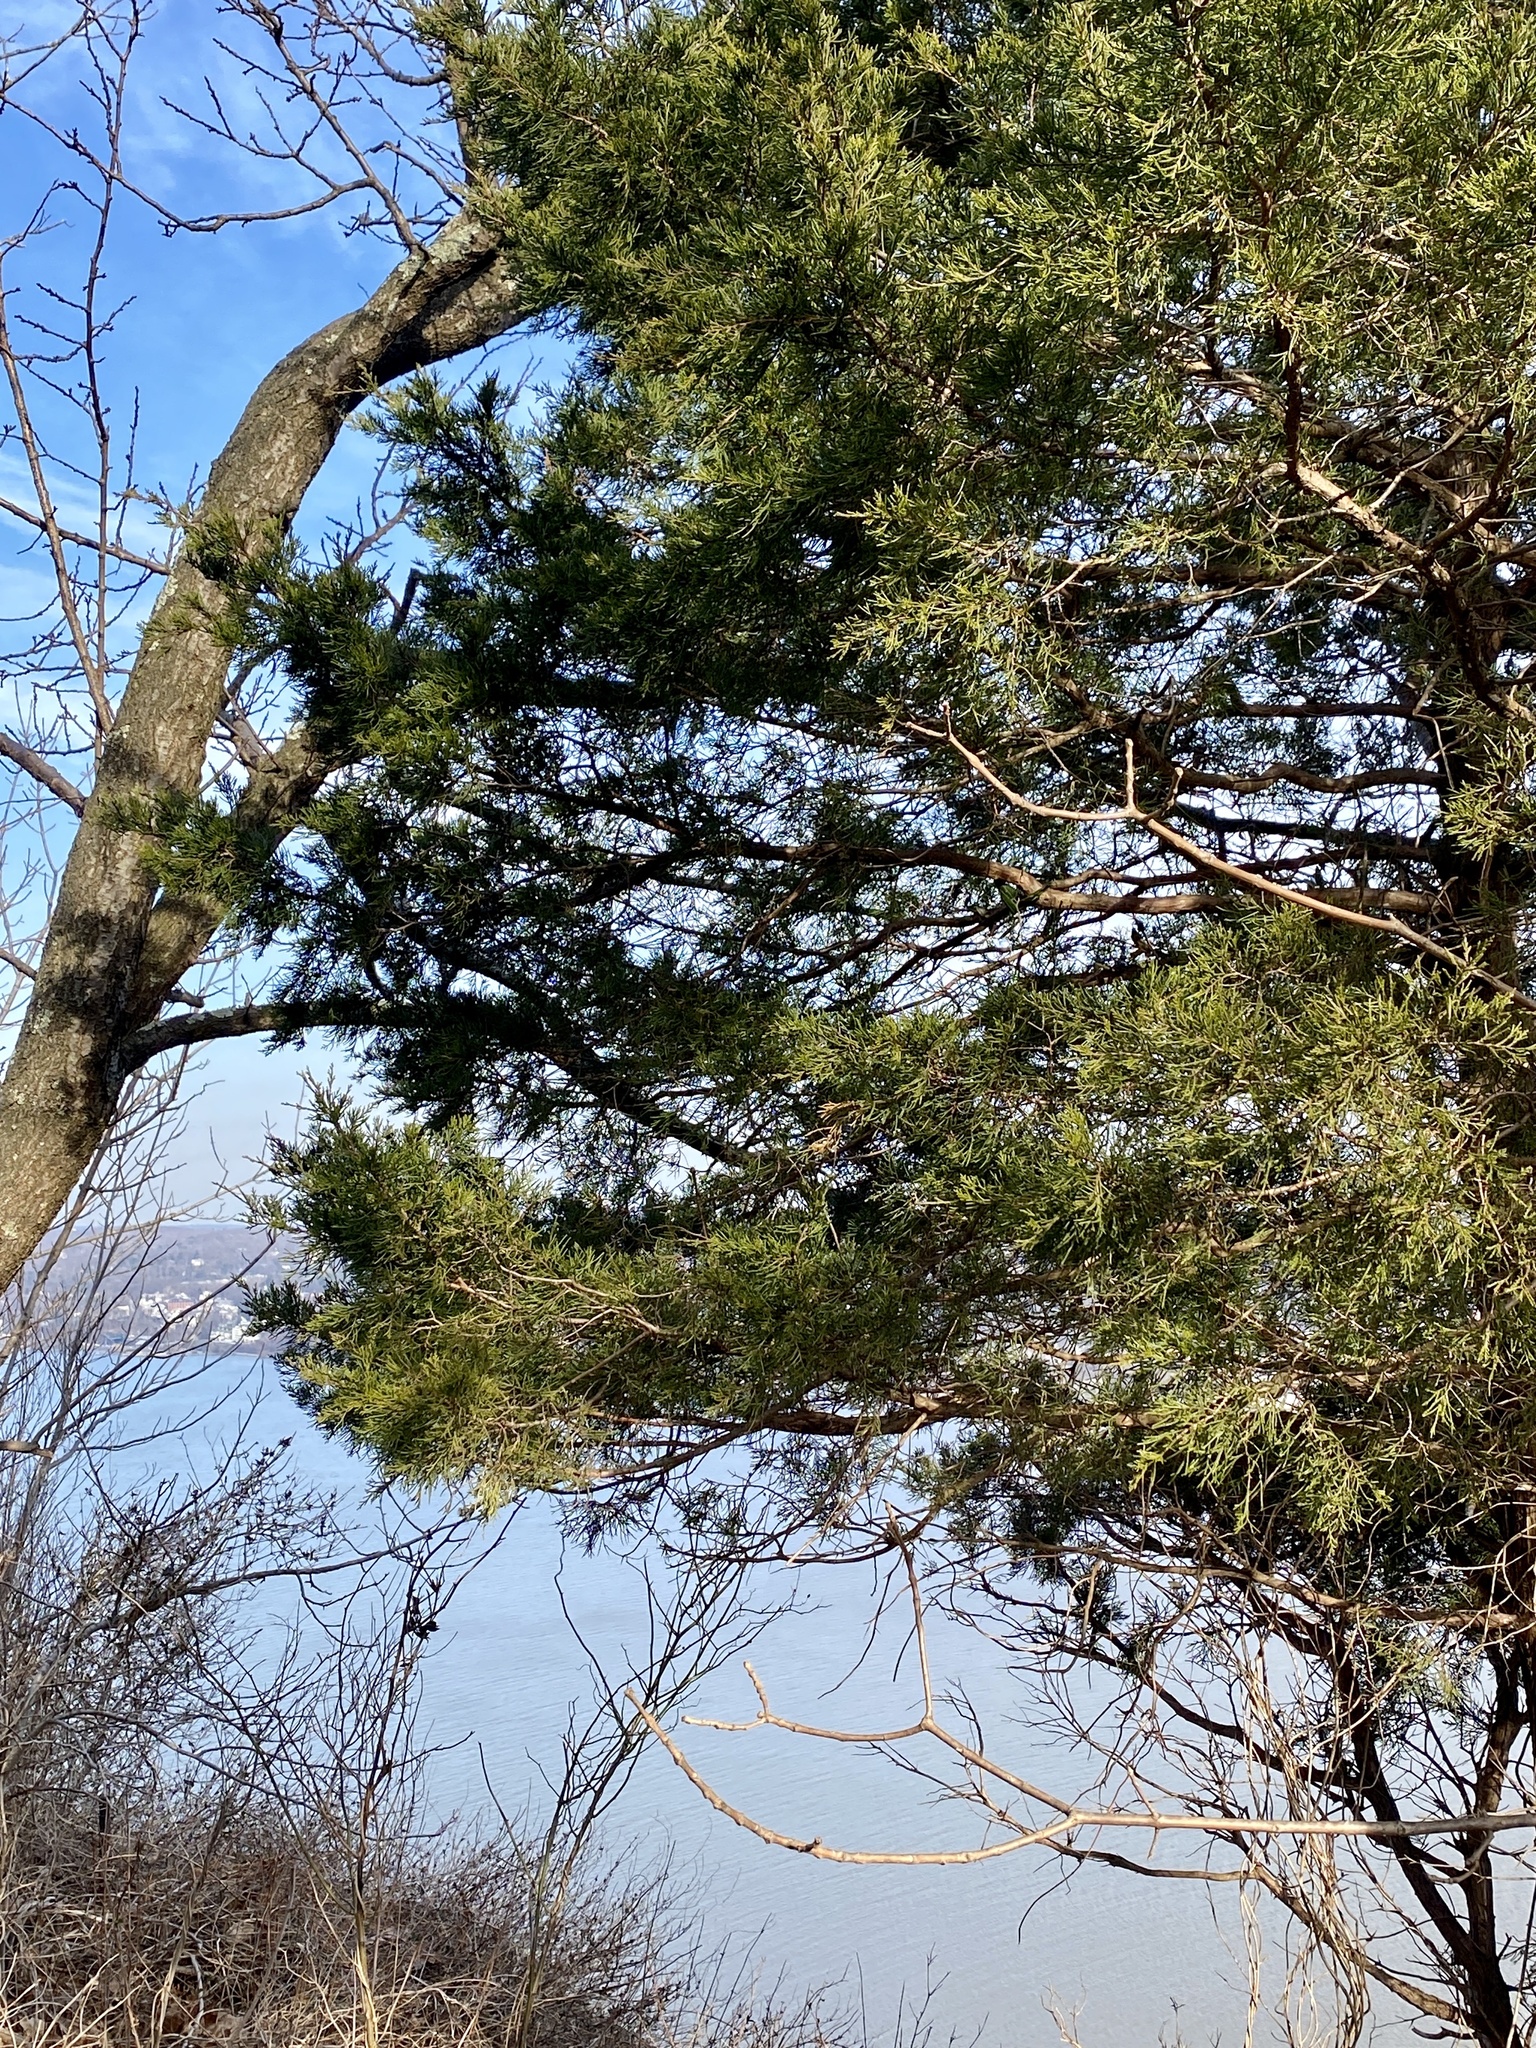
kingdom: Plantae
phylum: Tracheophyta
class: Pinopsida
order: Pinales
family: Cupressaceae
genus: Juniperus
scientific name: Juniperus virginiana
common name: Red juniper
